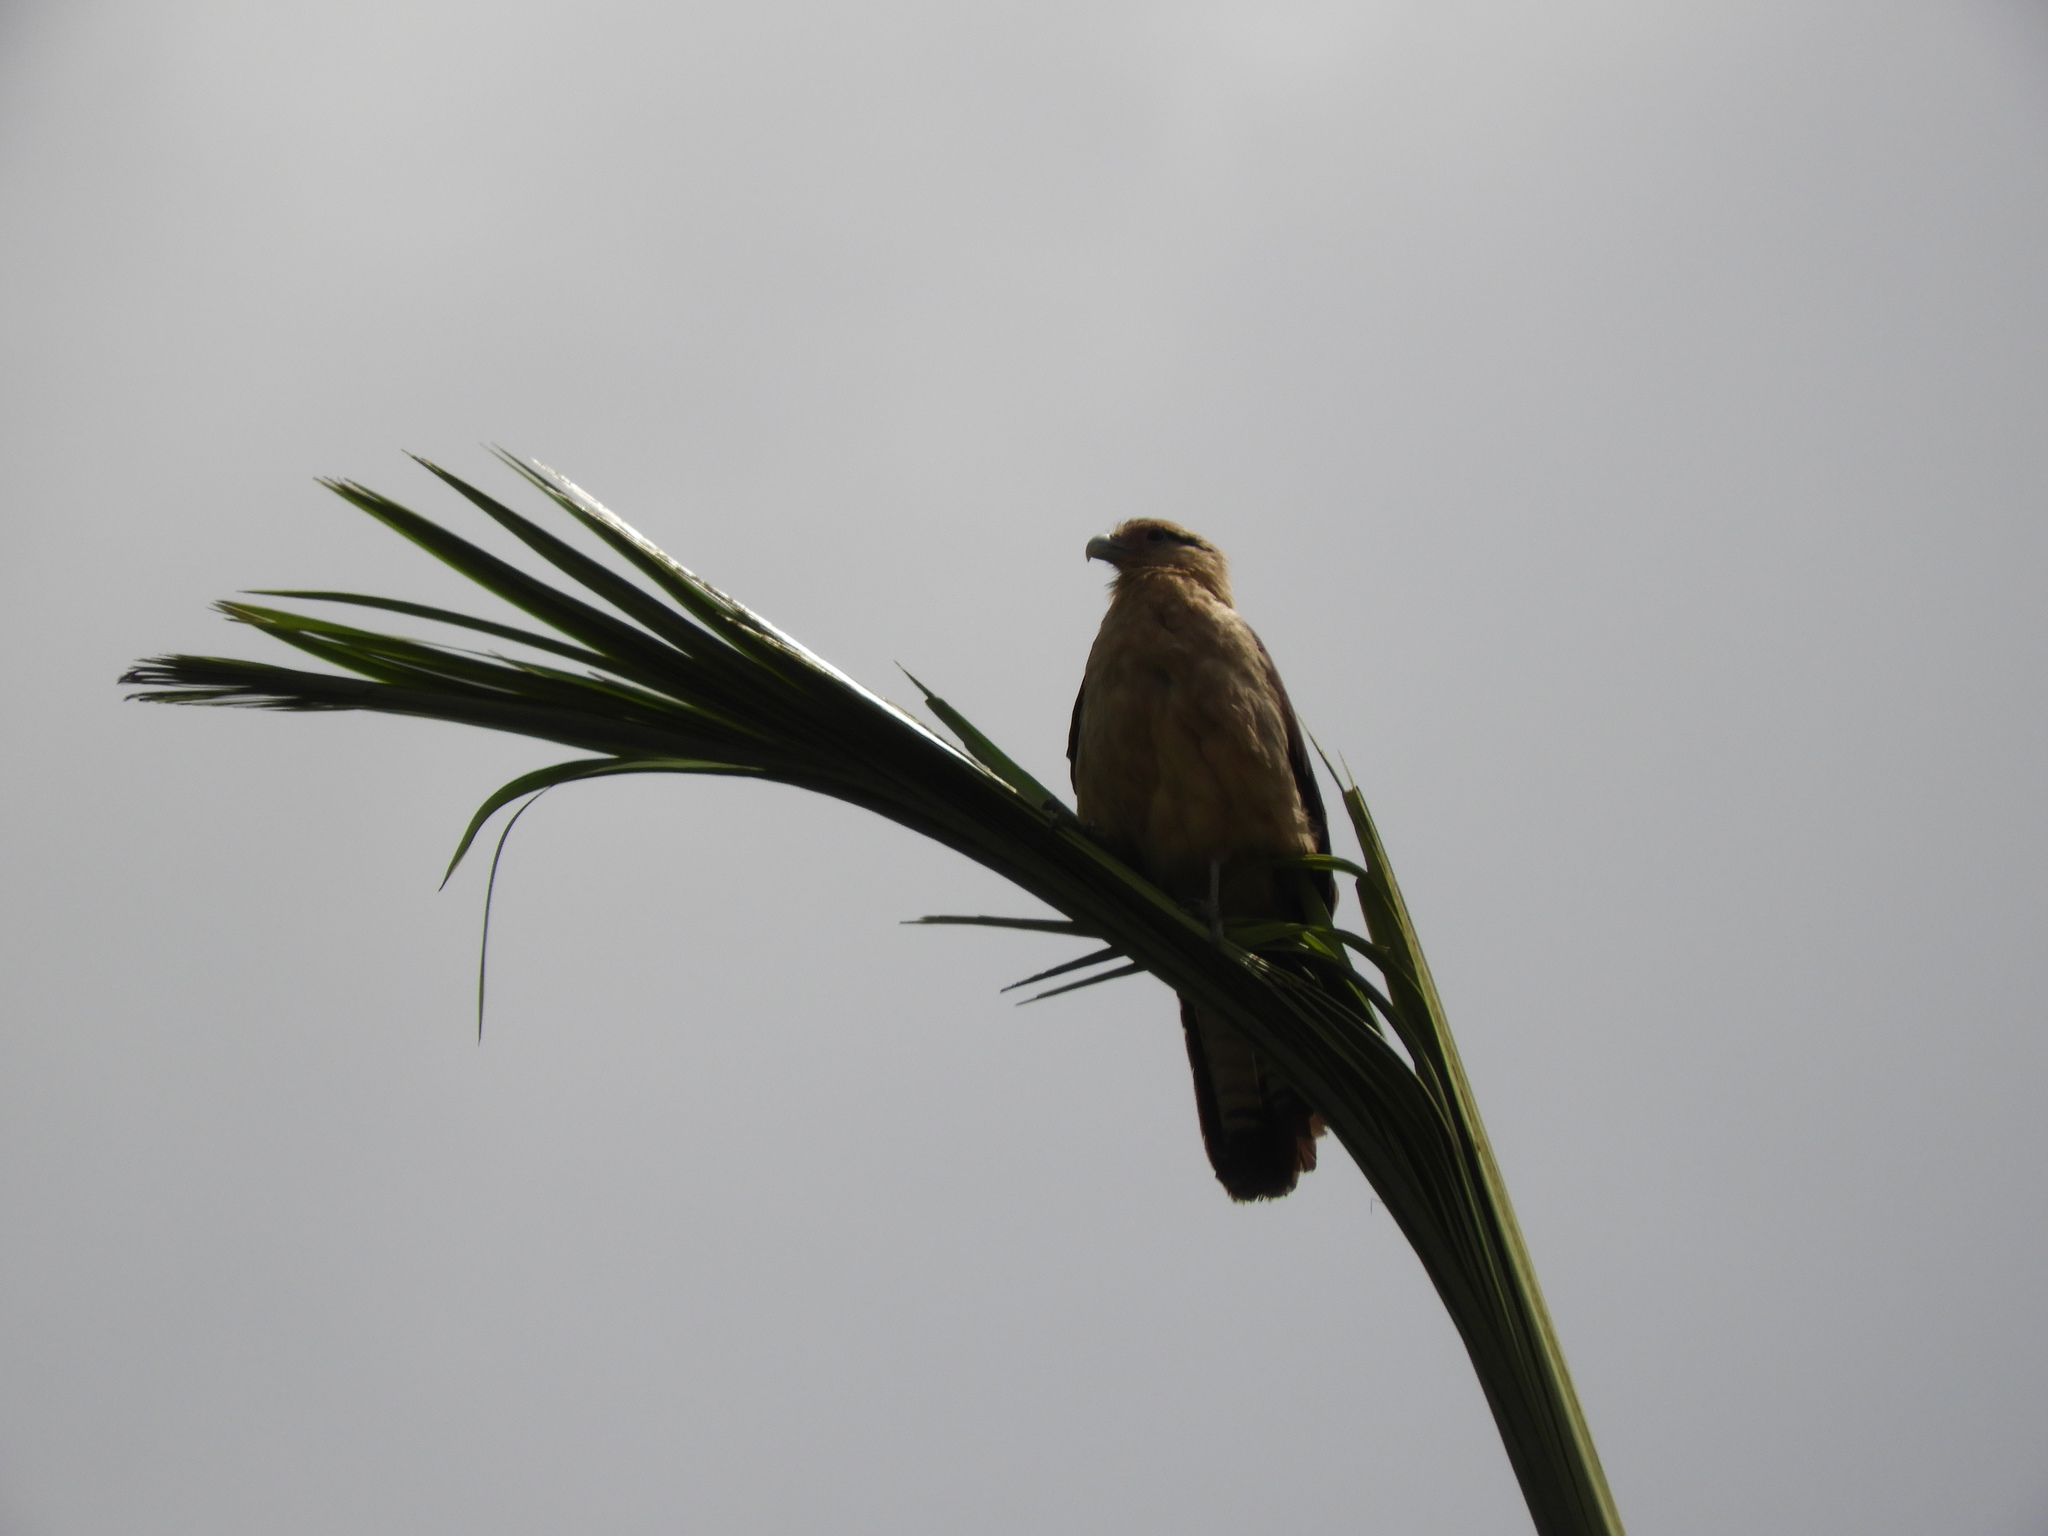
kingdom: Animalia
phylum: Chordata
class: Aves
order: Falconiformes
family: Falconidae
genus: Daptrius
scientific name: Daptrius
